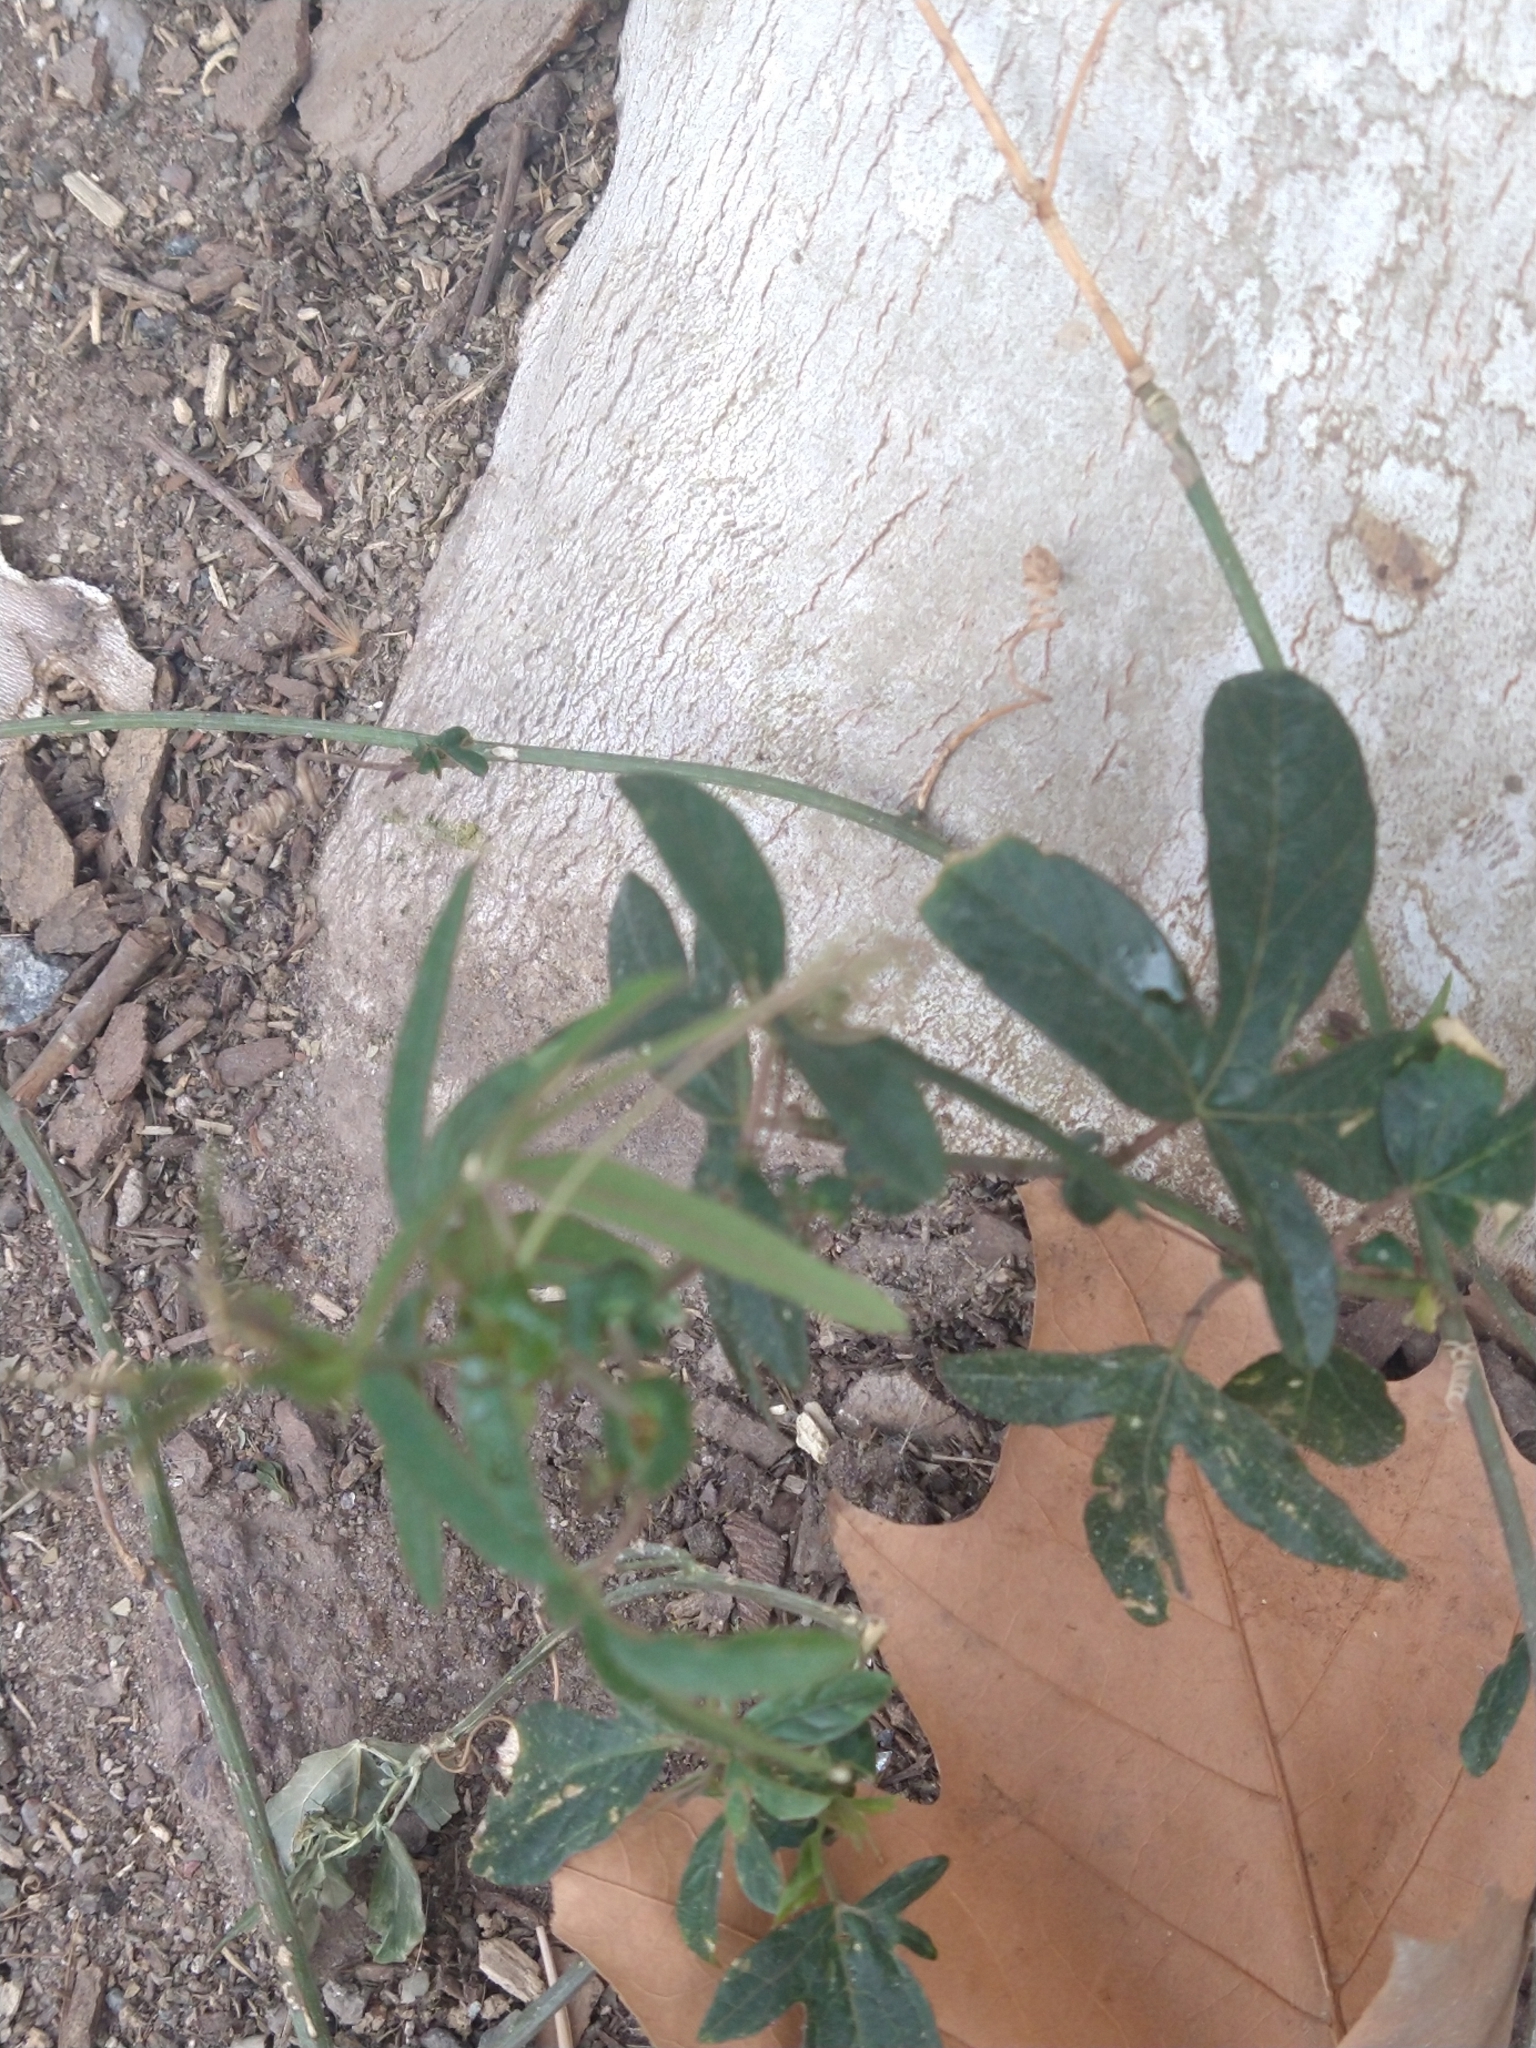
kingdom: Plantae
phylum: Tracheophyta
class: Magnoliopsida
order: Malpighiales
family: Passifloraceae
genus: Passiflora
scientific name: Passiflora caerulea
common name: Blue passionflower
